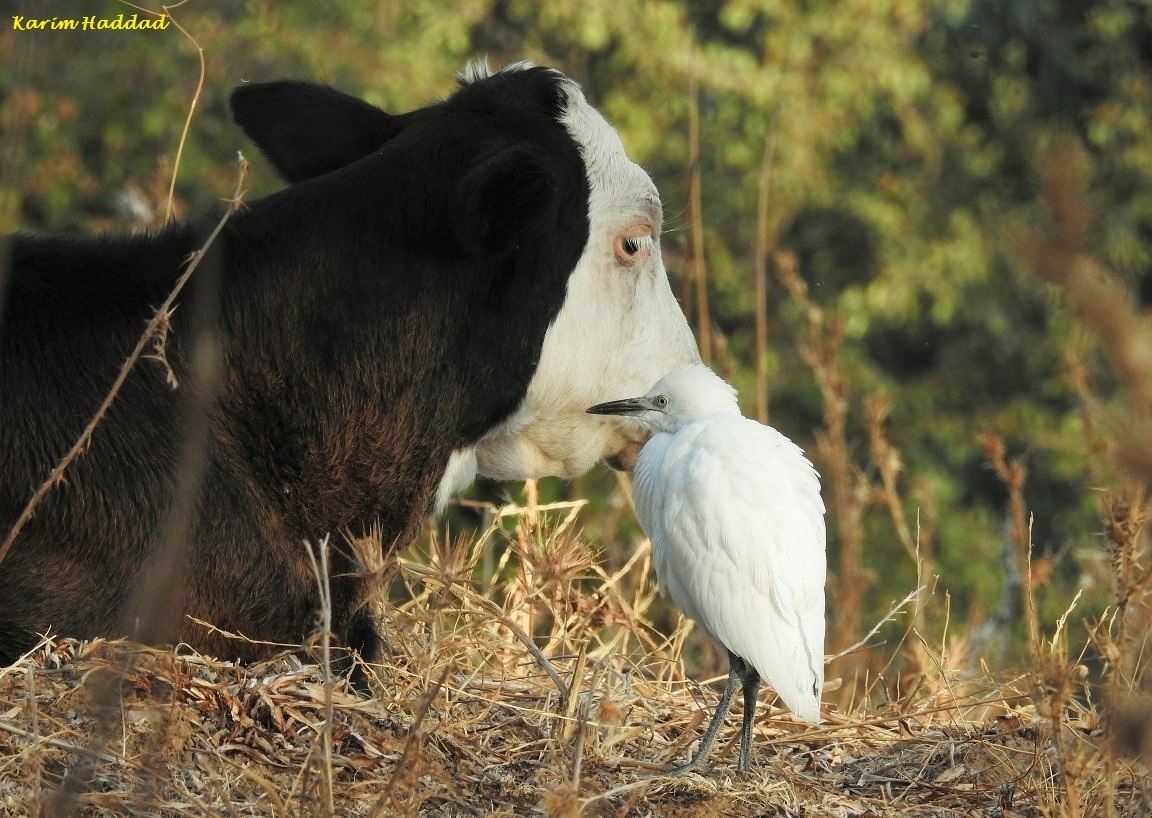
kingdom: Animalia
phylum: Chordata
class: Aves
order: Pelecaniformes
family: Ardeidae
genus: Bubulcus
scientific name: Bubulcus ibis
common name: Cattle egret
